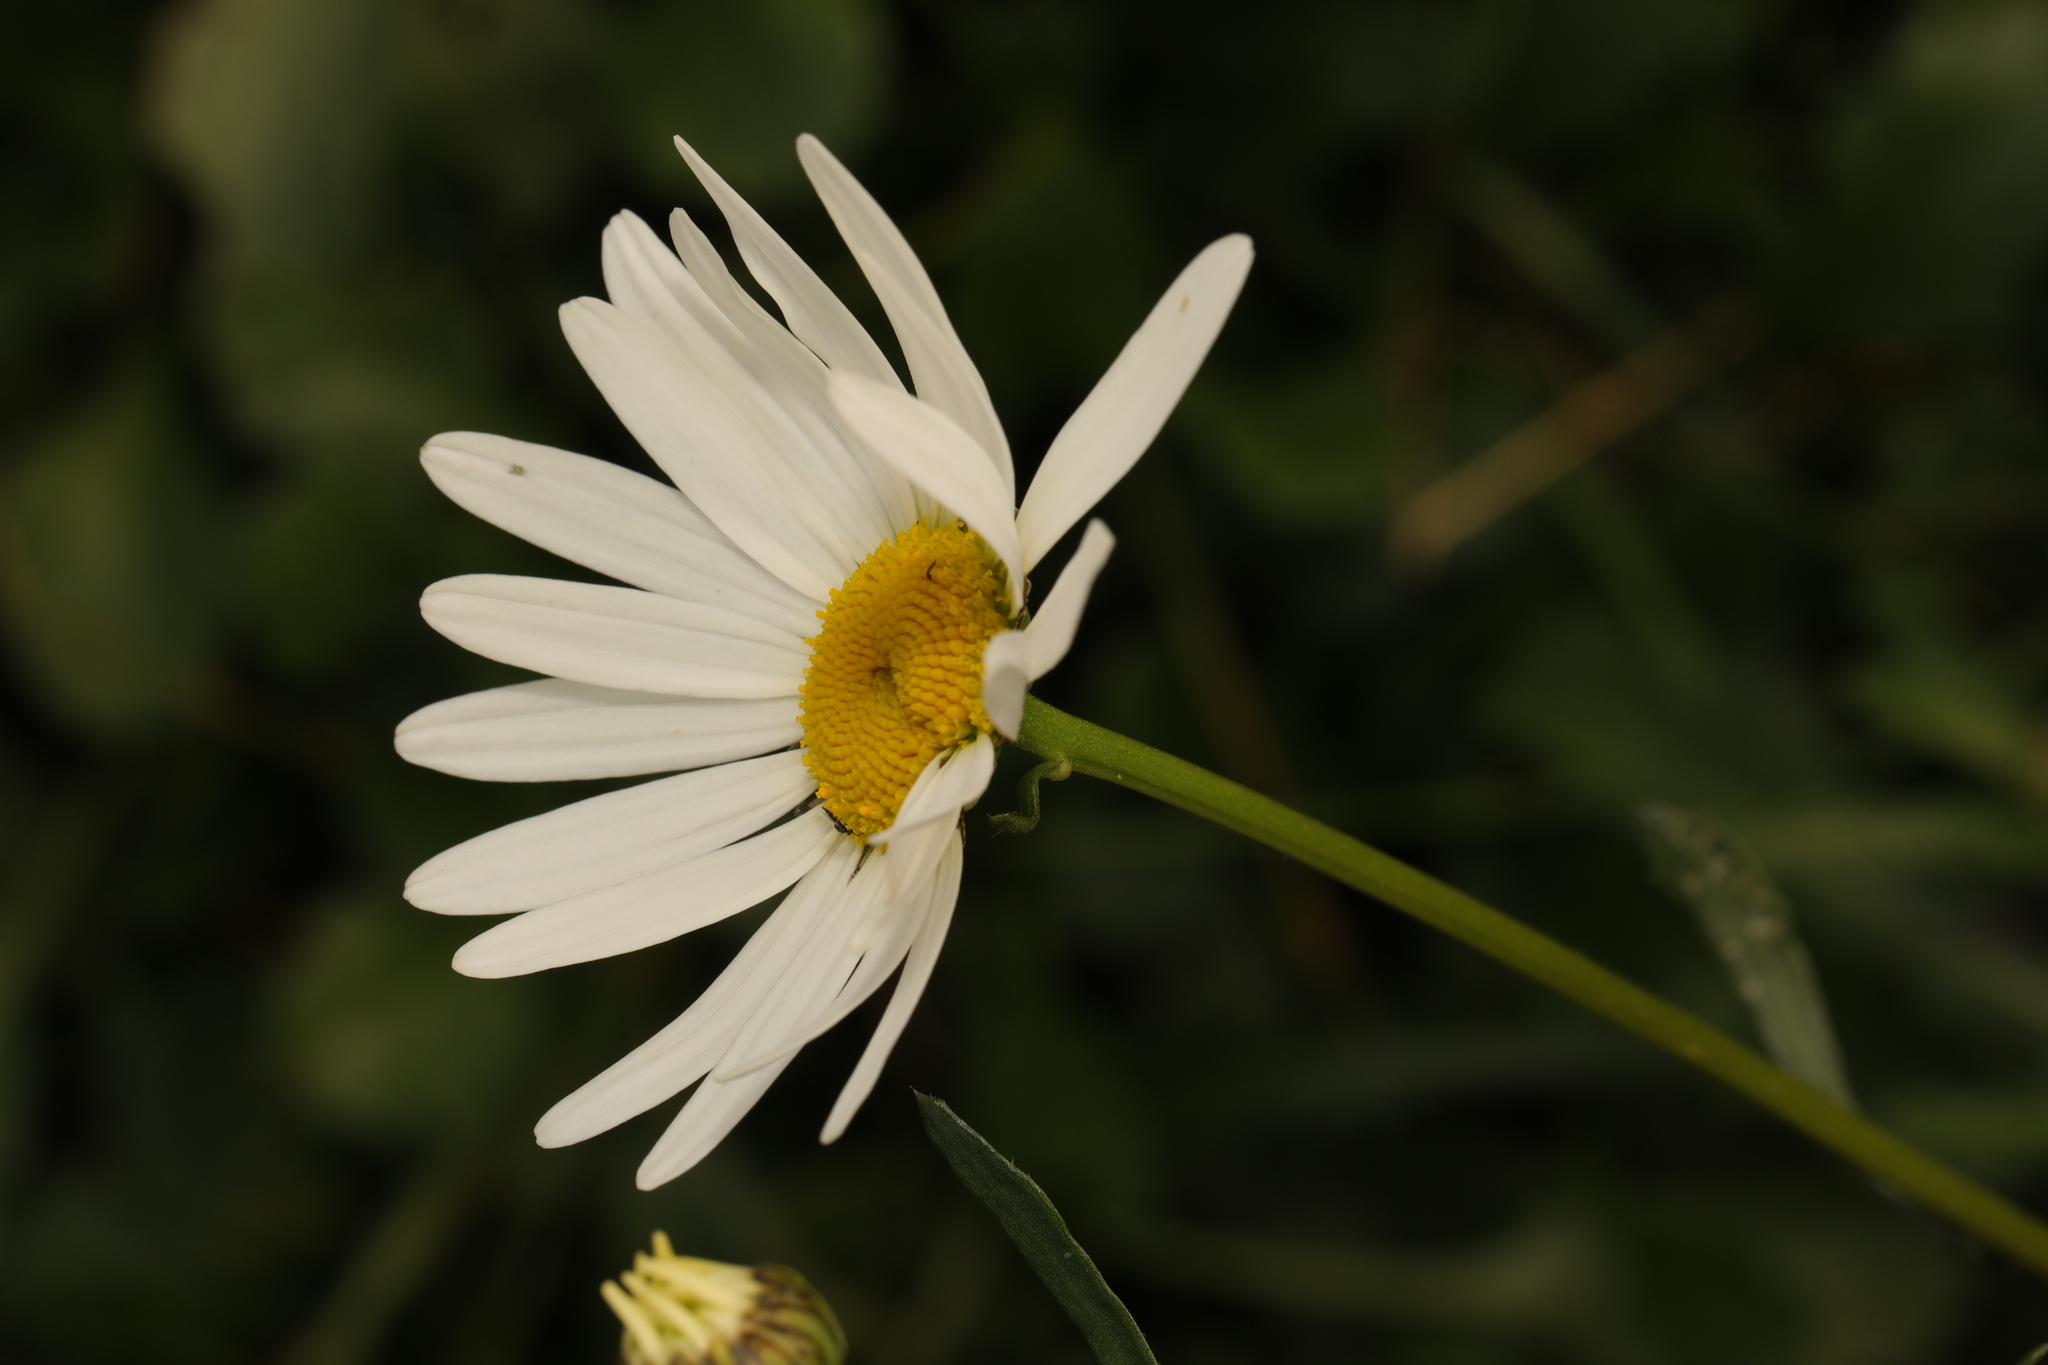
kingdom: Plantae
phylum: Tracheophyta
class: Magnoliopsida
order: Asterales
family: Asteraceae
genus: Leucanthemum
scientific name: Leucanthemum vulgare
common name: Oxeye daisy
